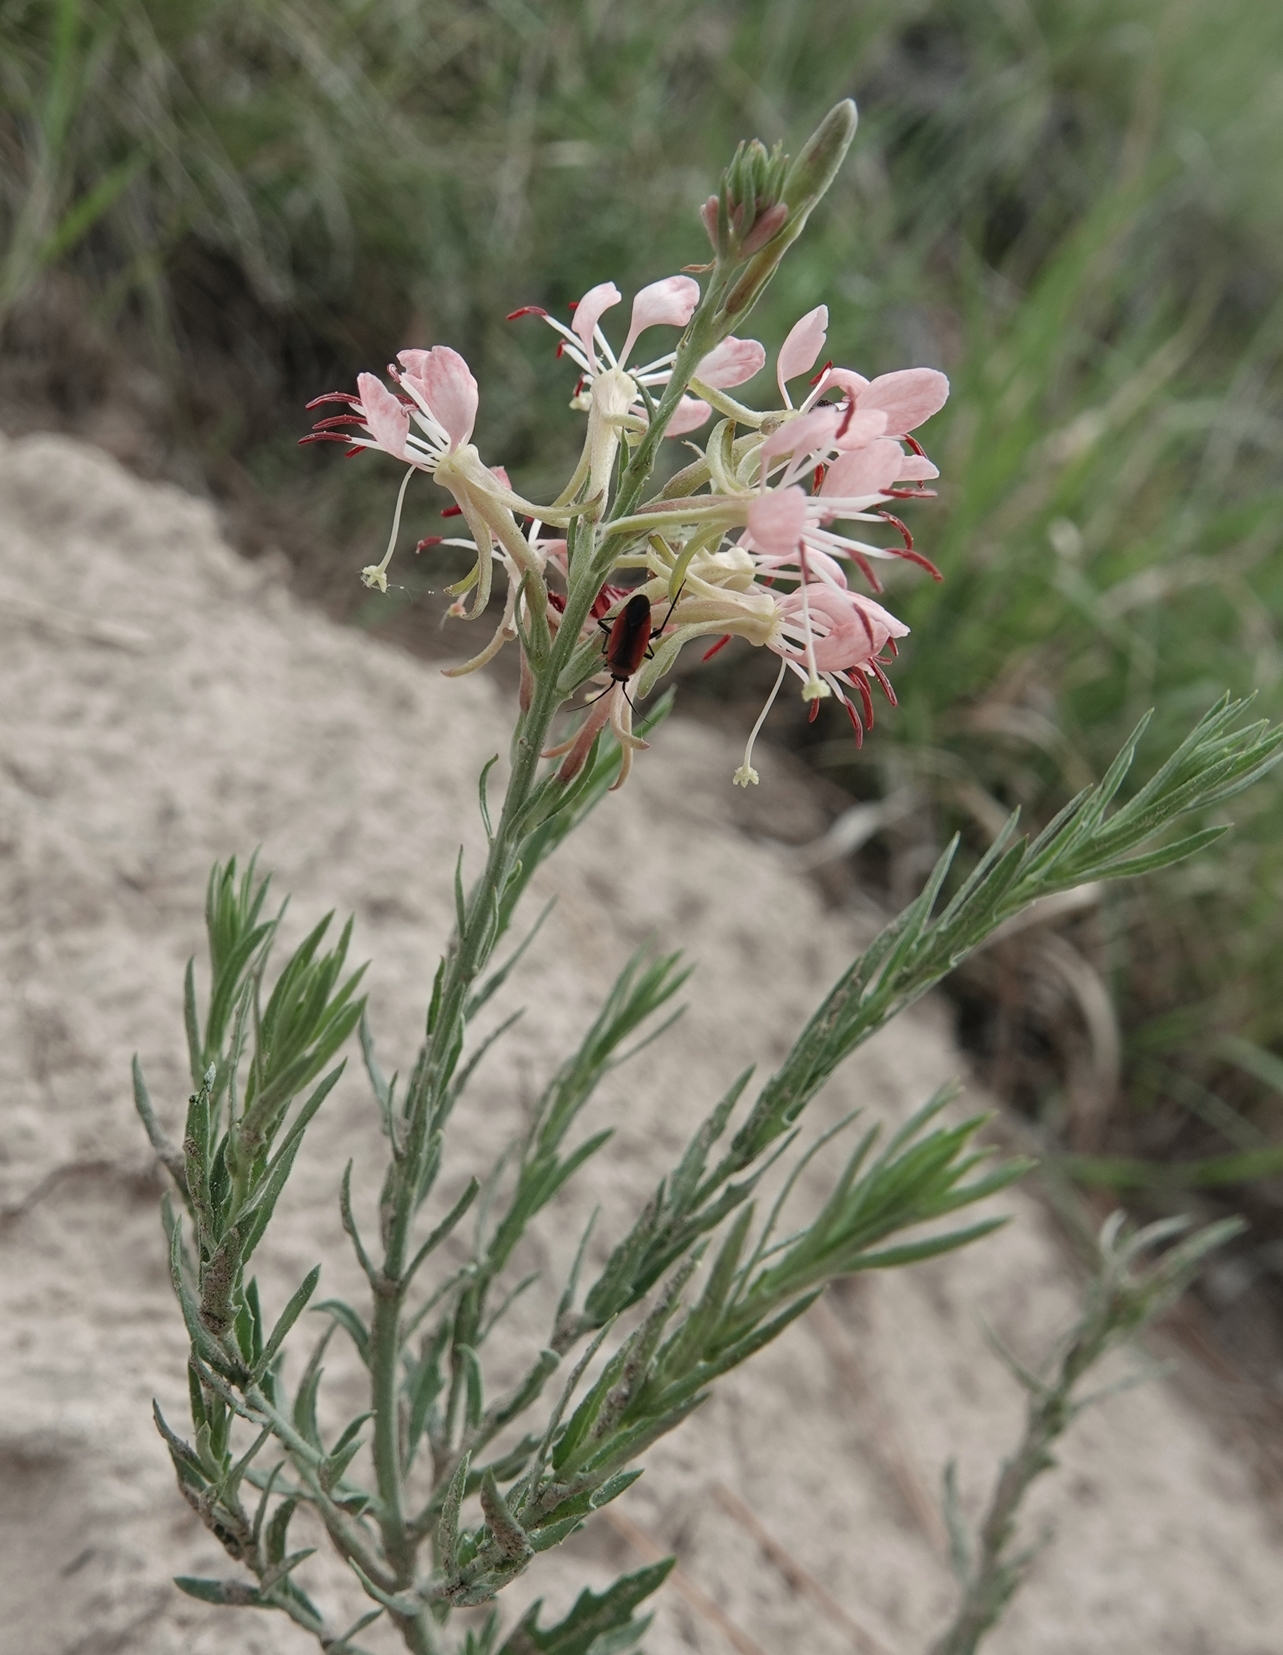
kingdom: Plantae
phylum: Tracheophyta
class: Magnoliopsida
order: Myrtales
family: Onagraceae
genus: Oenothera
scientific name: Oenothera suffrutescens
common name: Scarlet beeblossom
